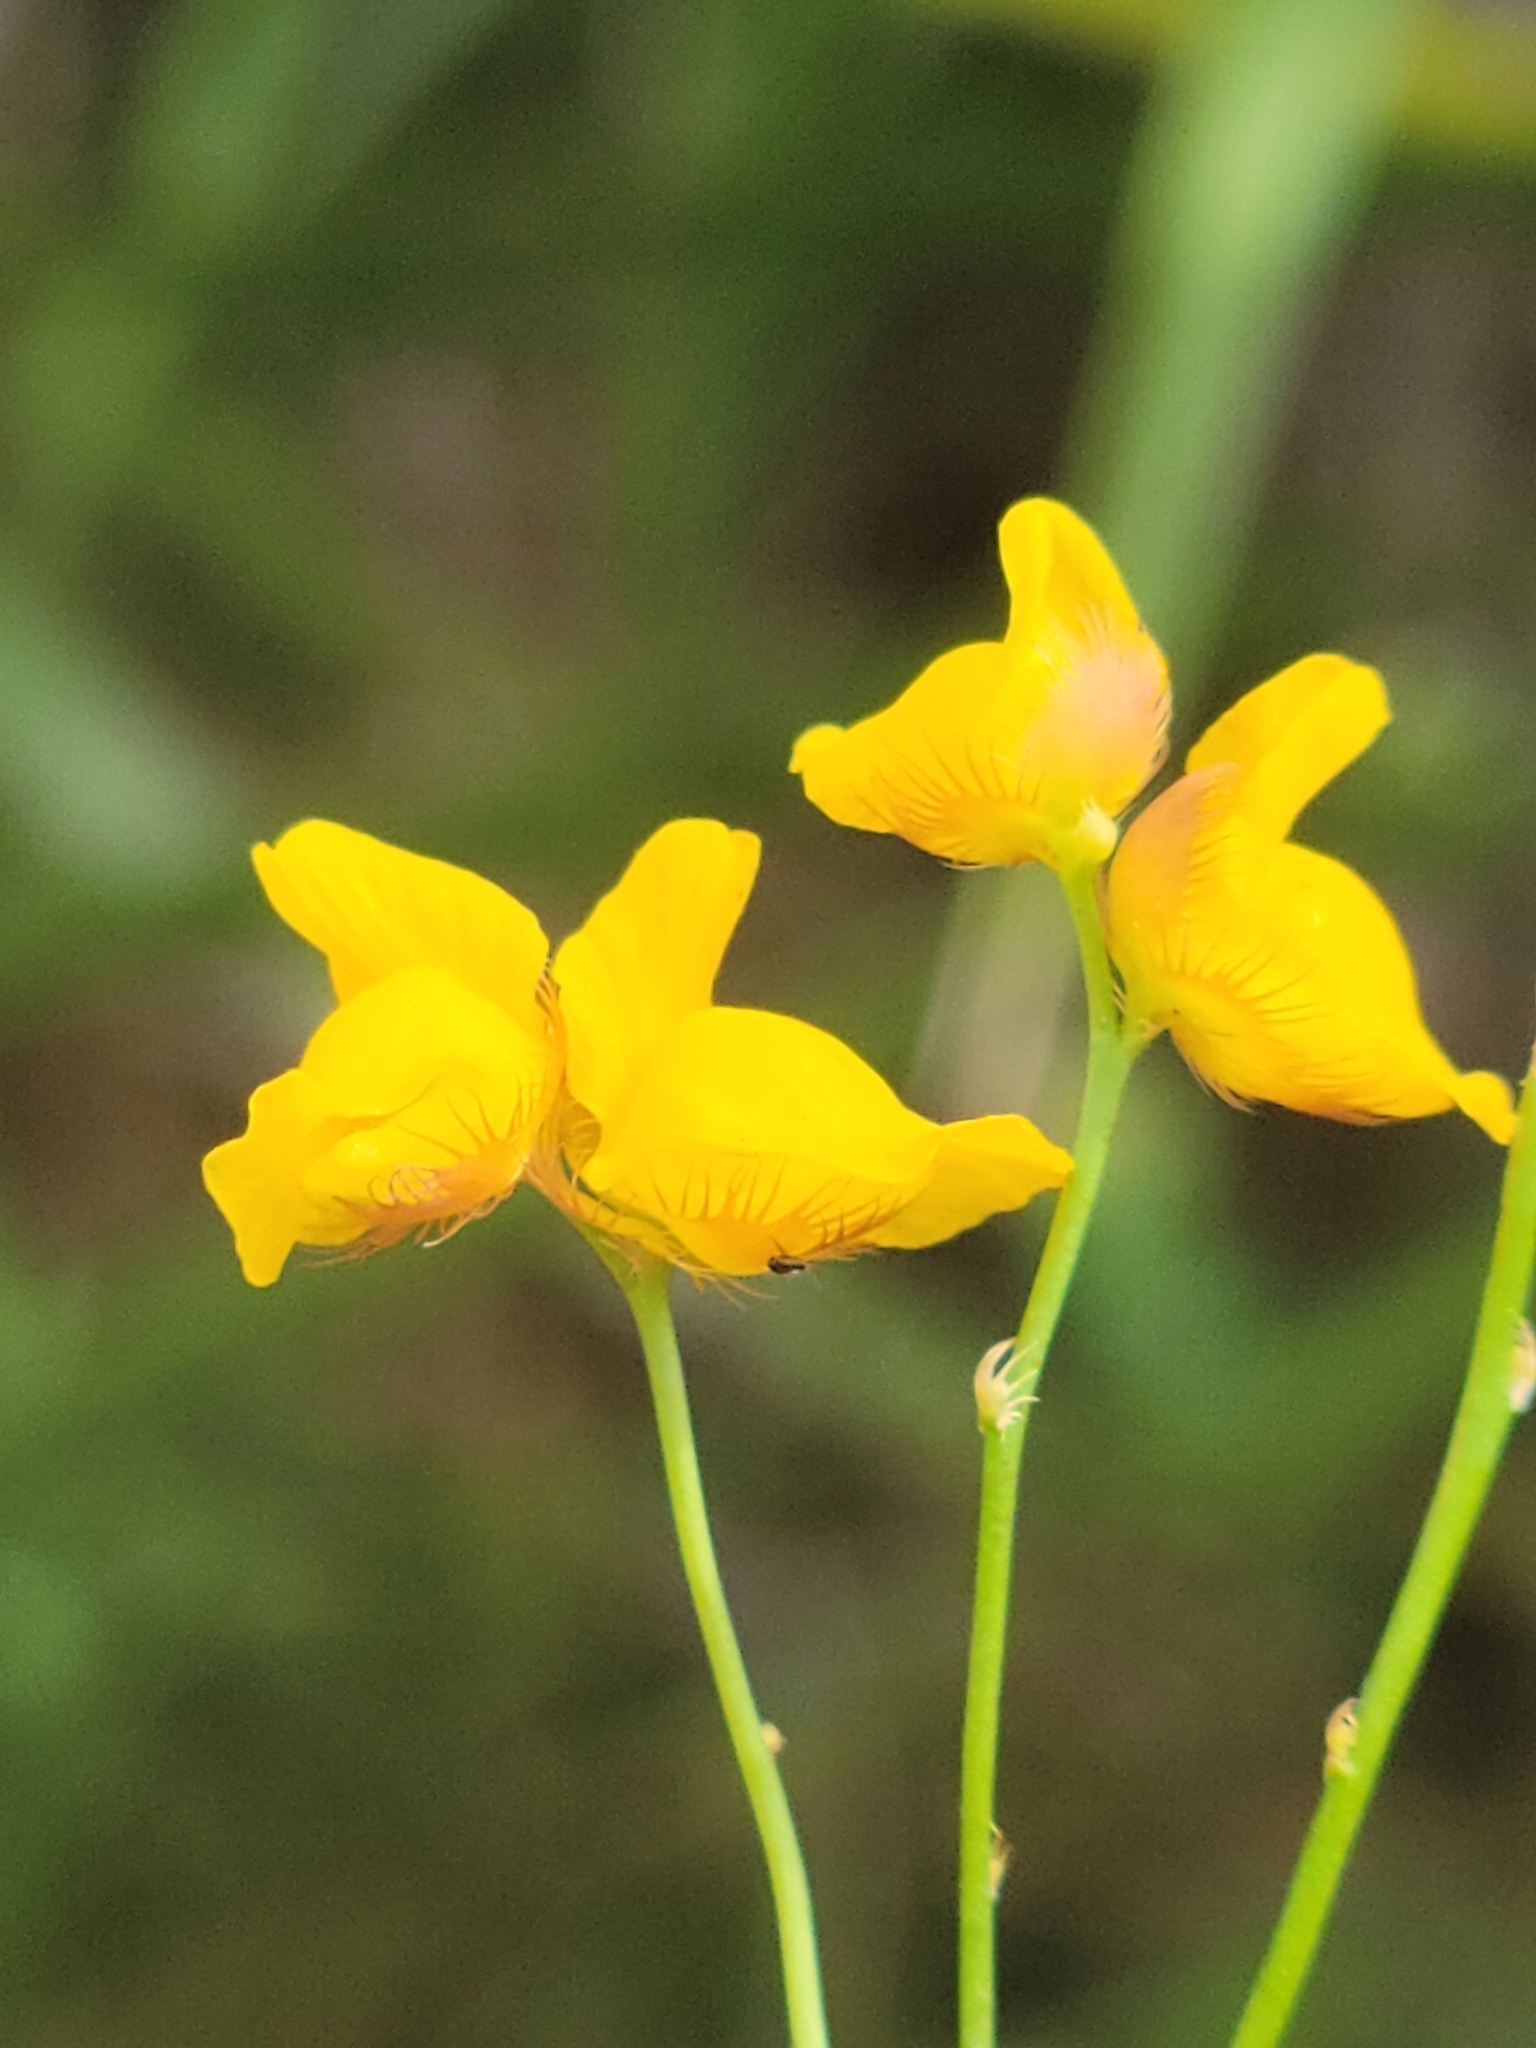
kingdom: Plantae
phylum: Tracheophyta
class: Magnoliopsida
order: Lamiales
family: Lentibulariaceae
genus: Utricularia
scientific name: Utricularia simulans
